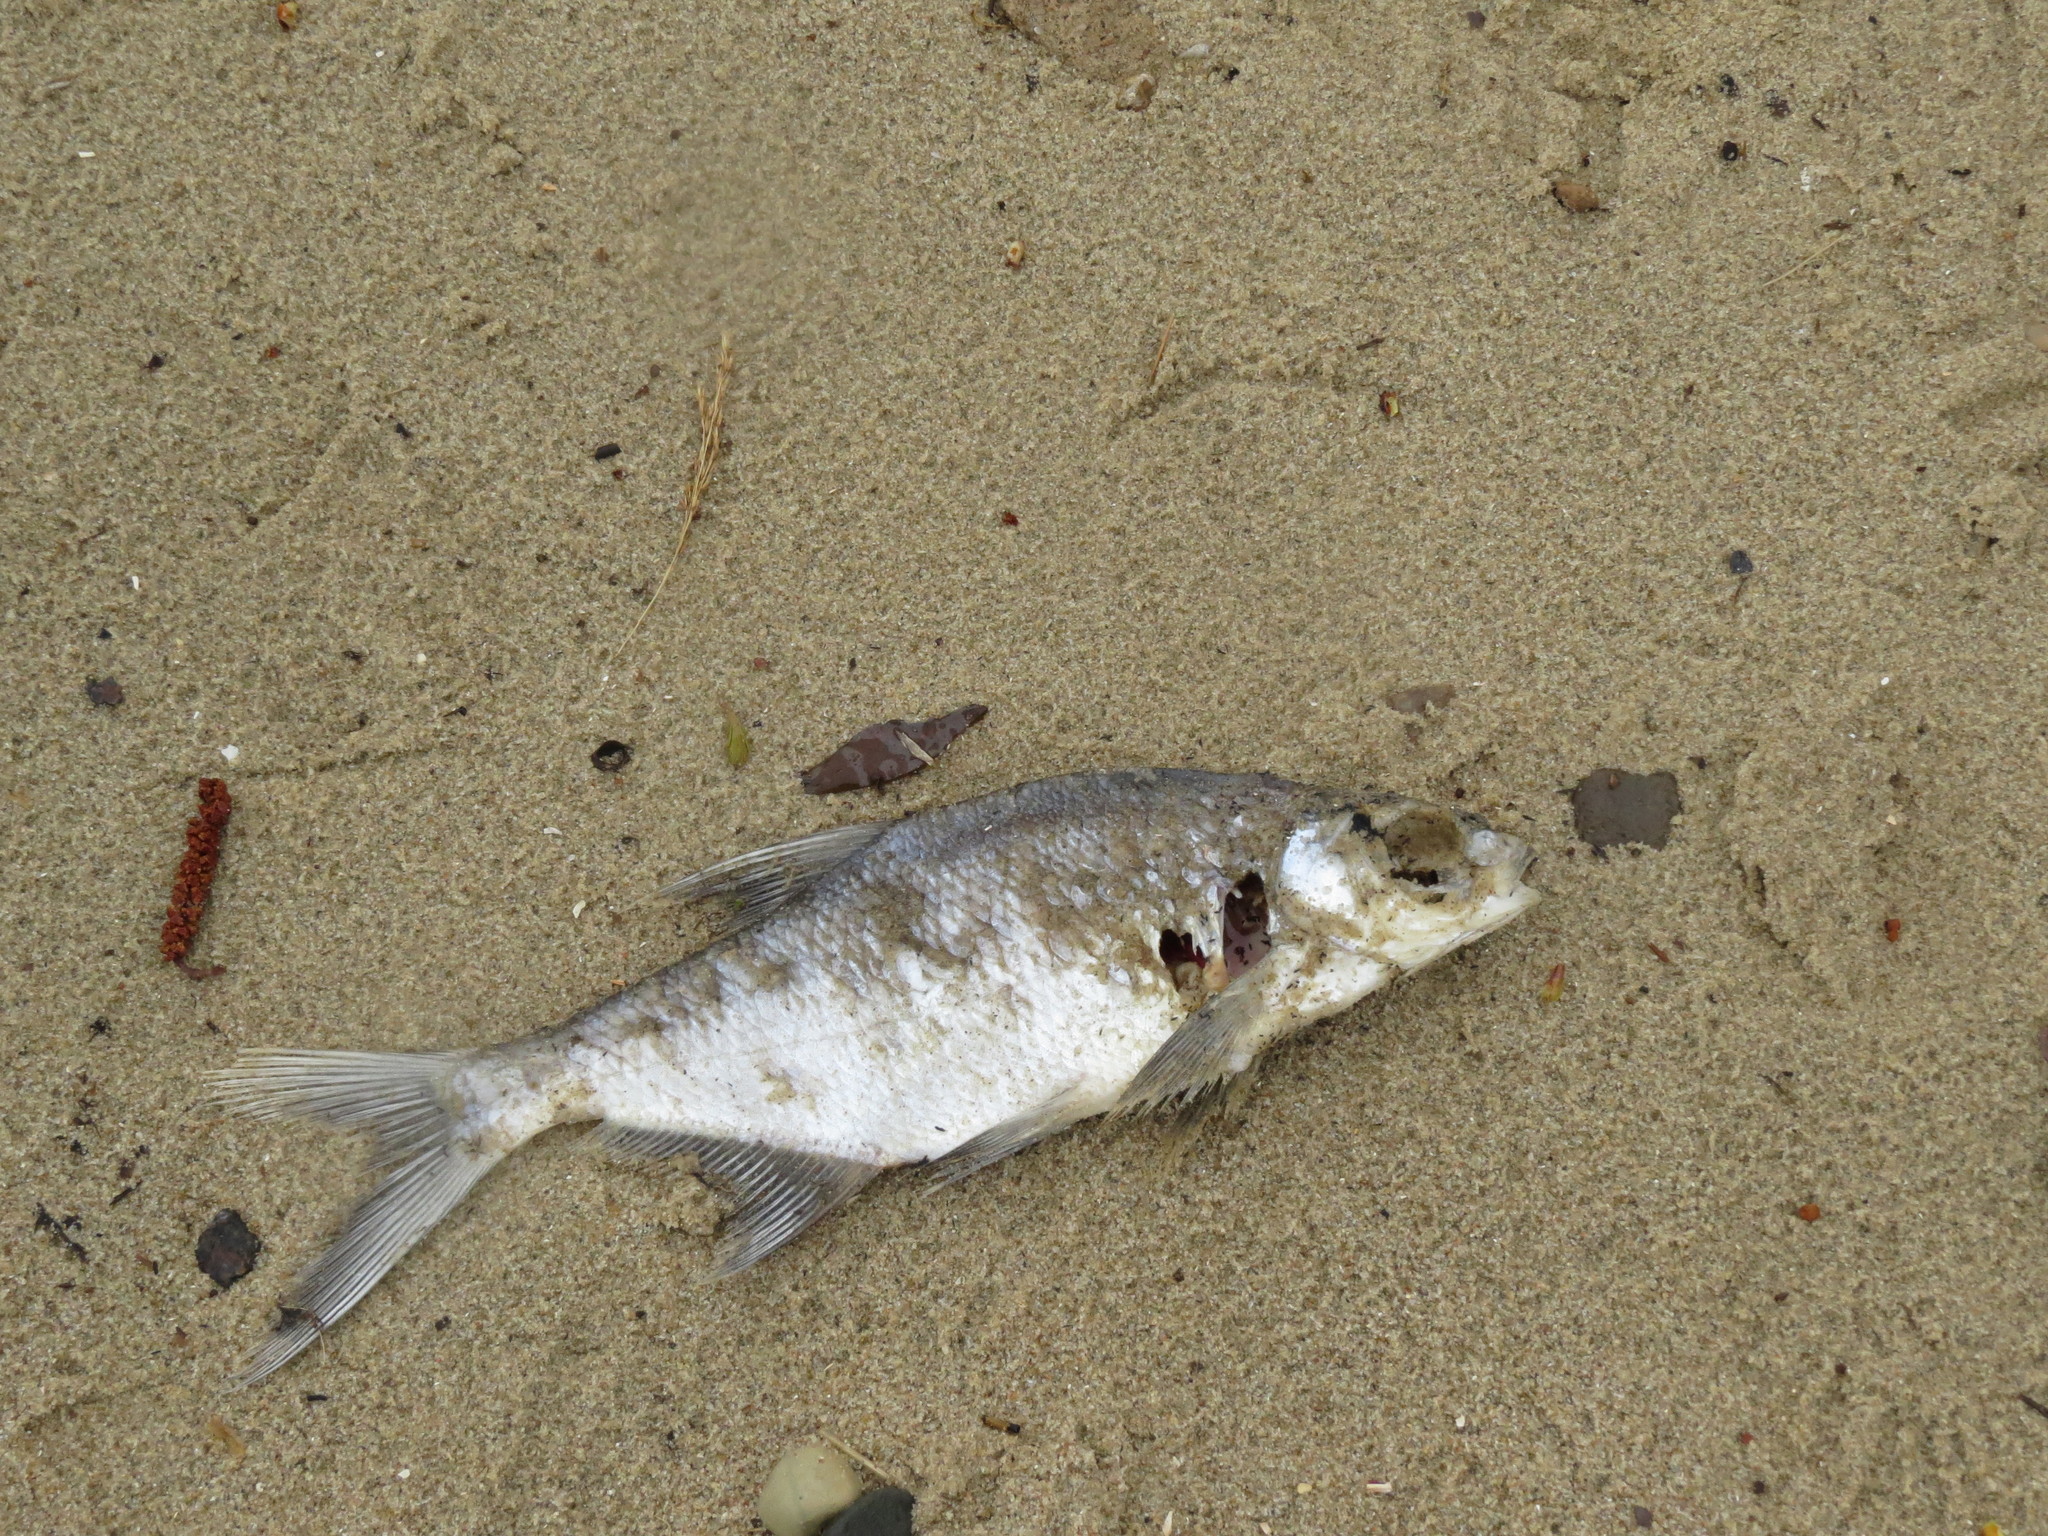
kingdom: Animalia
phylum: Chordata
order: Cypriniformes
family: Cyprinidae
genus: Abramis
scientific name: Abramis brama
